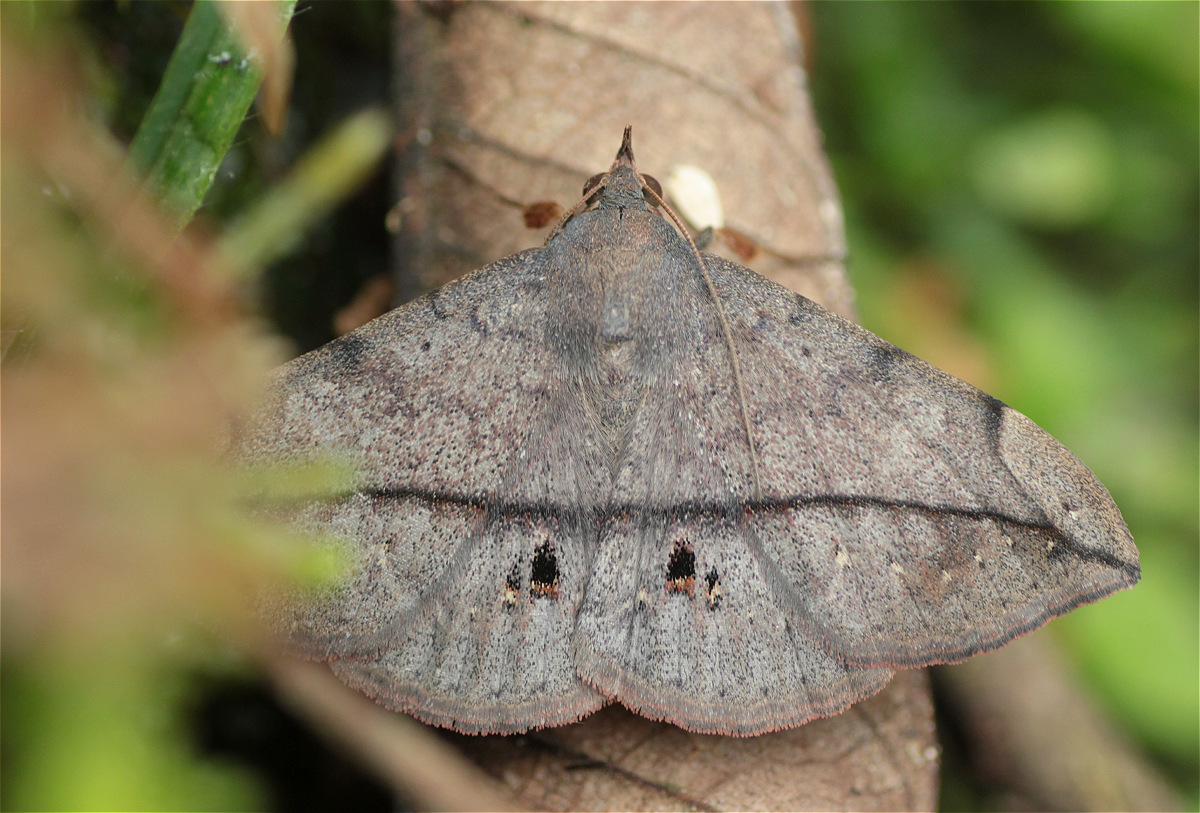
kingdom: Animalia
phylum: Arthropoda
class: Insecta
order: Lepidoptera
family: Erebidae
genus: Anticarsia
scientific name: Anticarsia gemmatalis
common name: Cutworm moth
